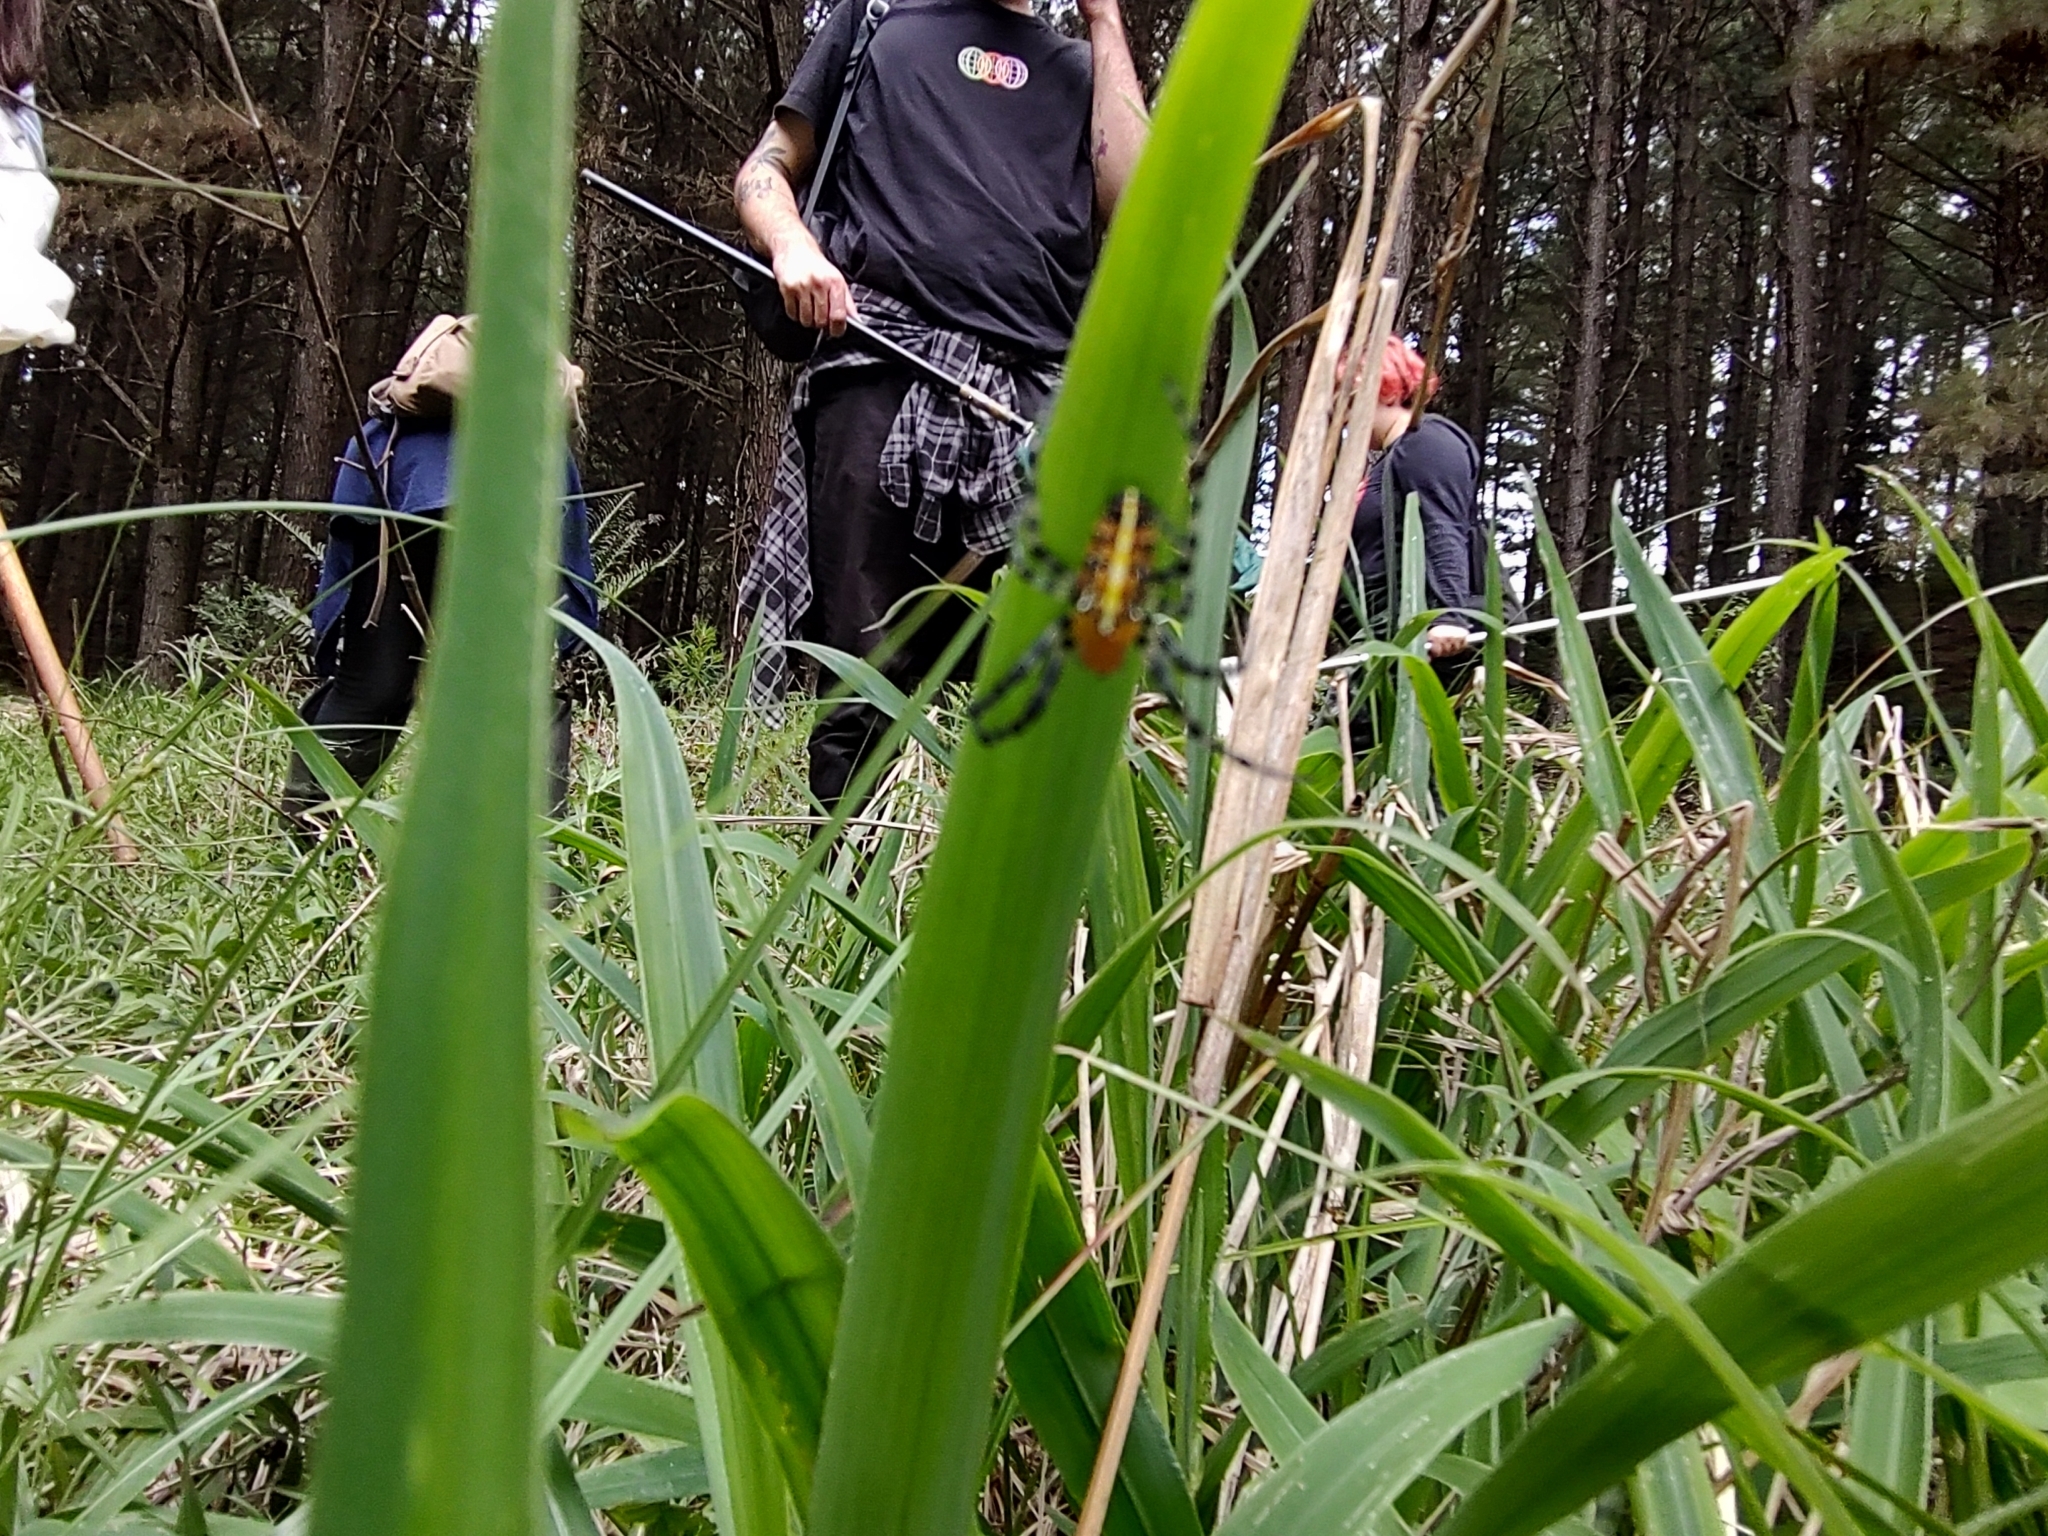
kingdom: Animalia
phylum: Arthropoda
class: Arachnida
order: Araneae
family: Araneidae
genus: Alpaida
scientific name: Alpaida grayi
